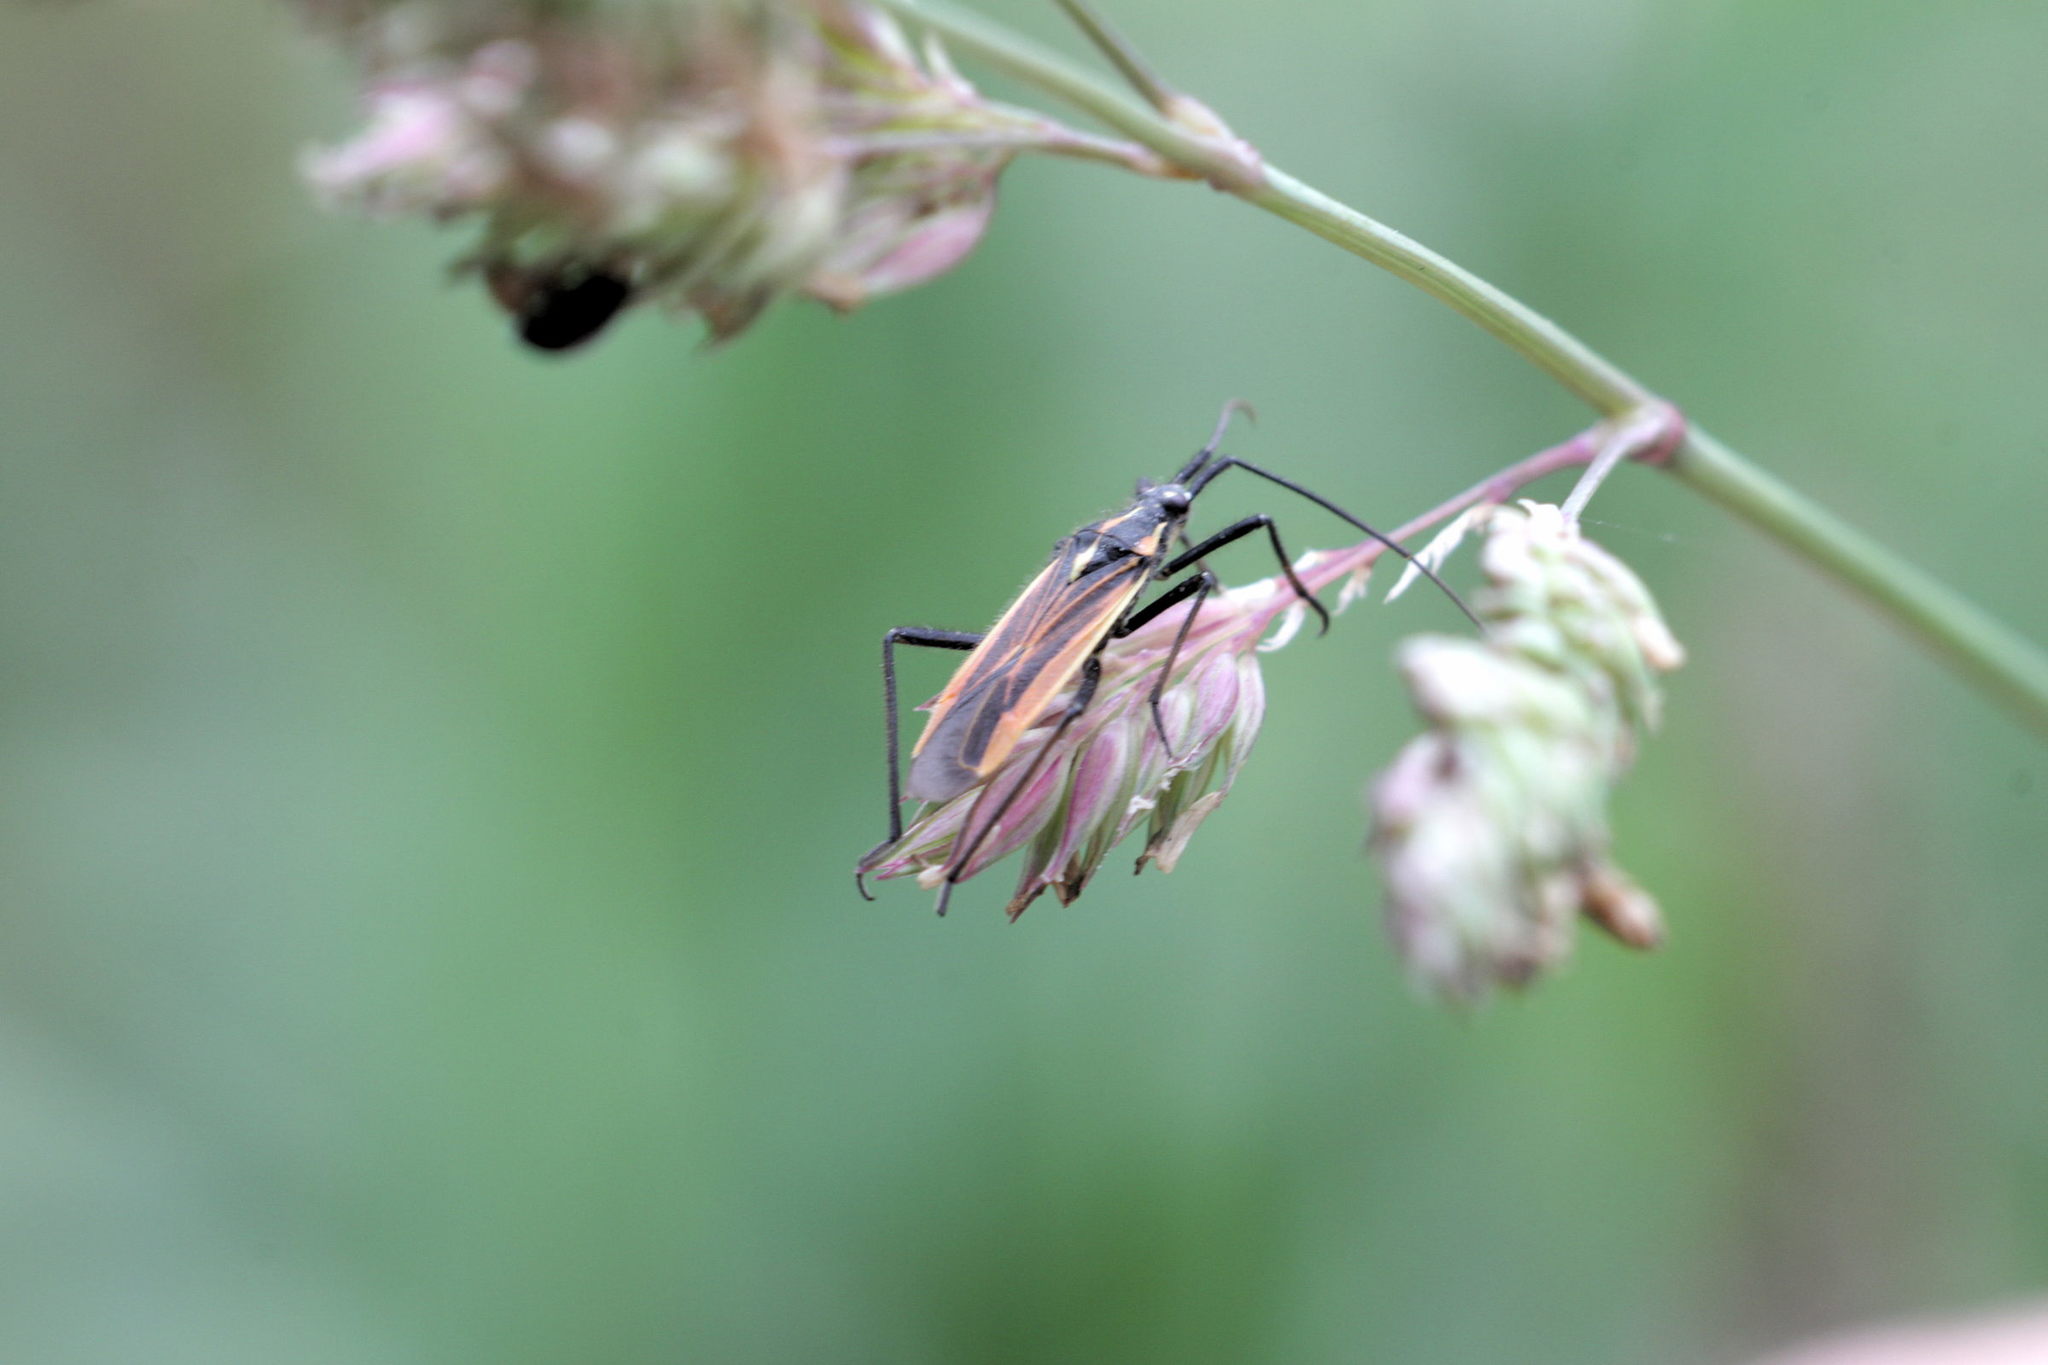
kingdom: Animalia
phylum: Arthropoda
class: Insecta
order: Hemiptera
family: Miridae
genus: Leptopterna
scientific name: Leptopterna dolabrata
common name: Meadow plant bug
